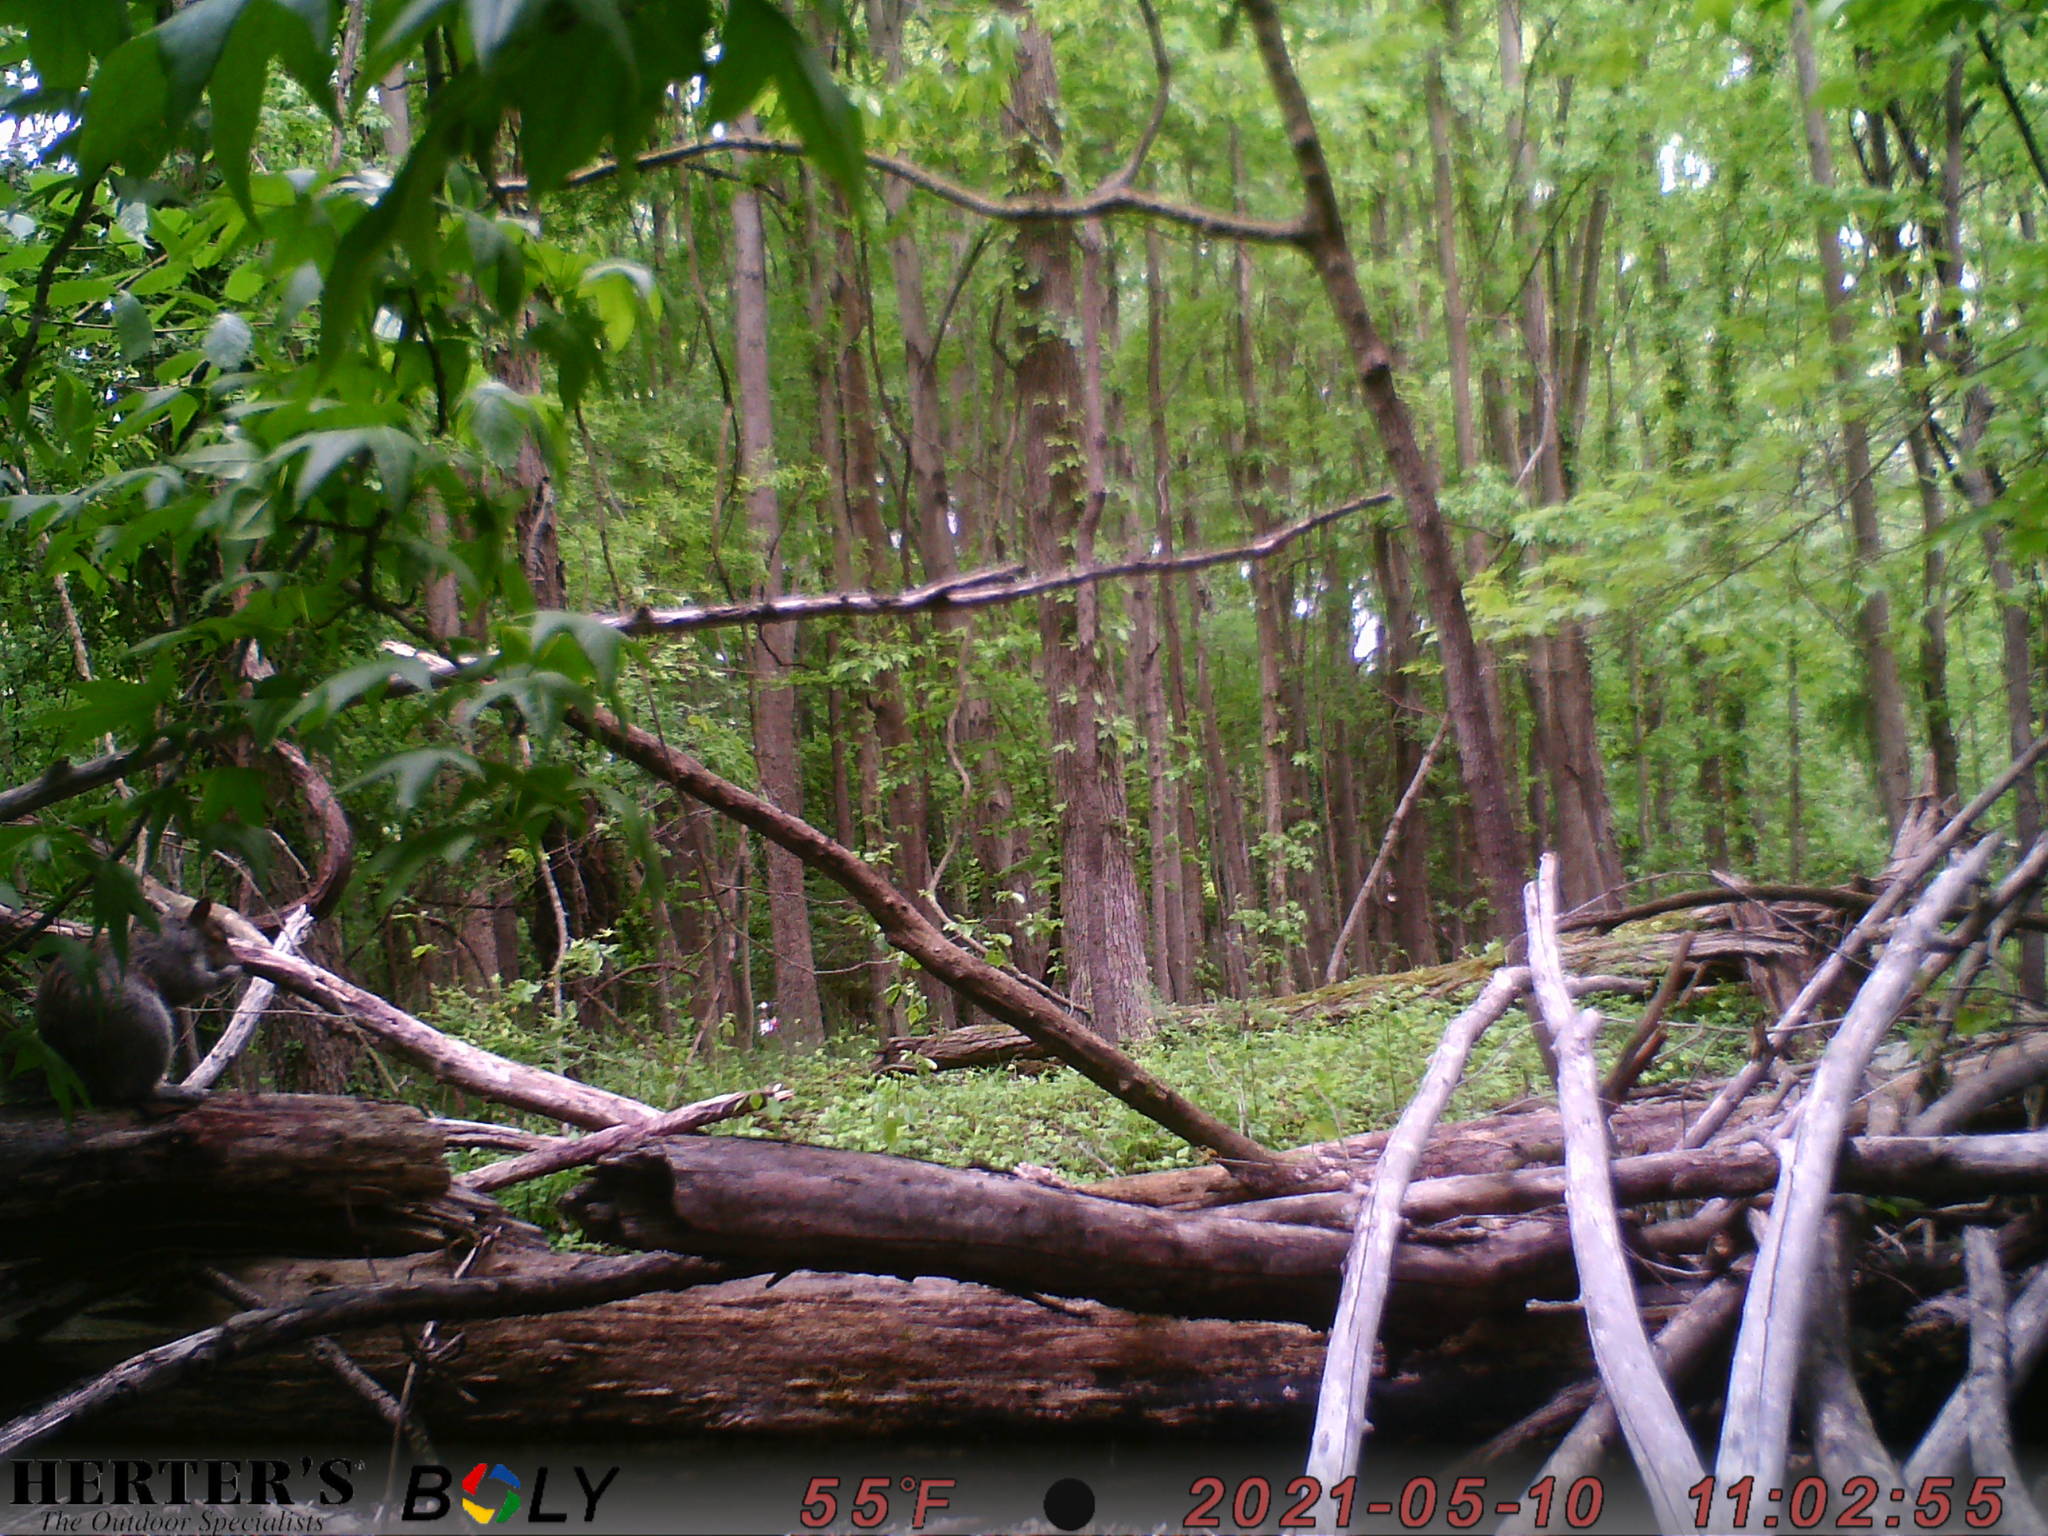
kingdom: Animalia
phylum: Chordata
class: Mammalia
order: Rodentia
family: Sciuridae
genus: Sciurus
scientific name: Sciurus carolinensis
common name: Eastern gray squirrel
